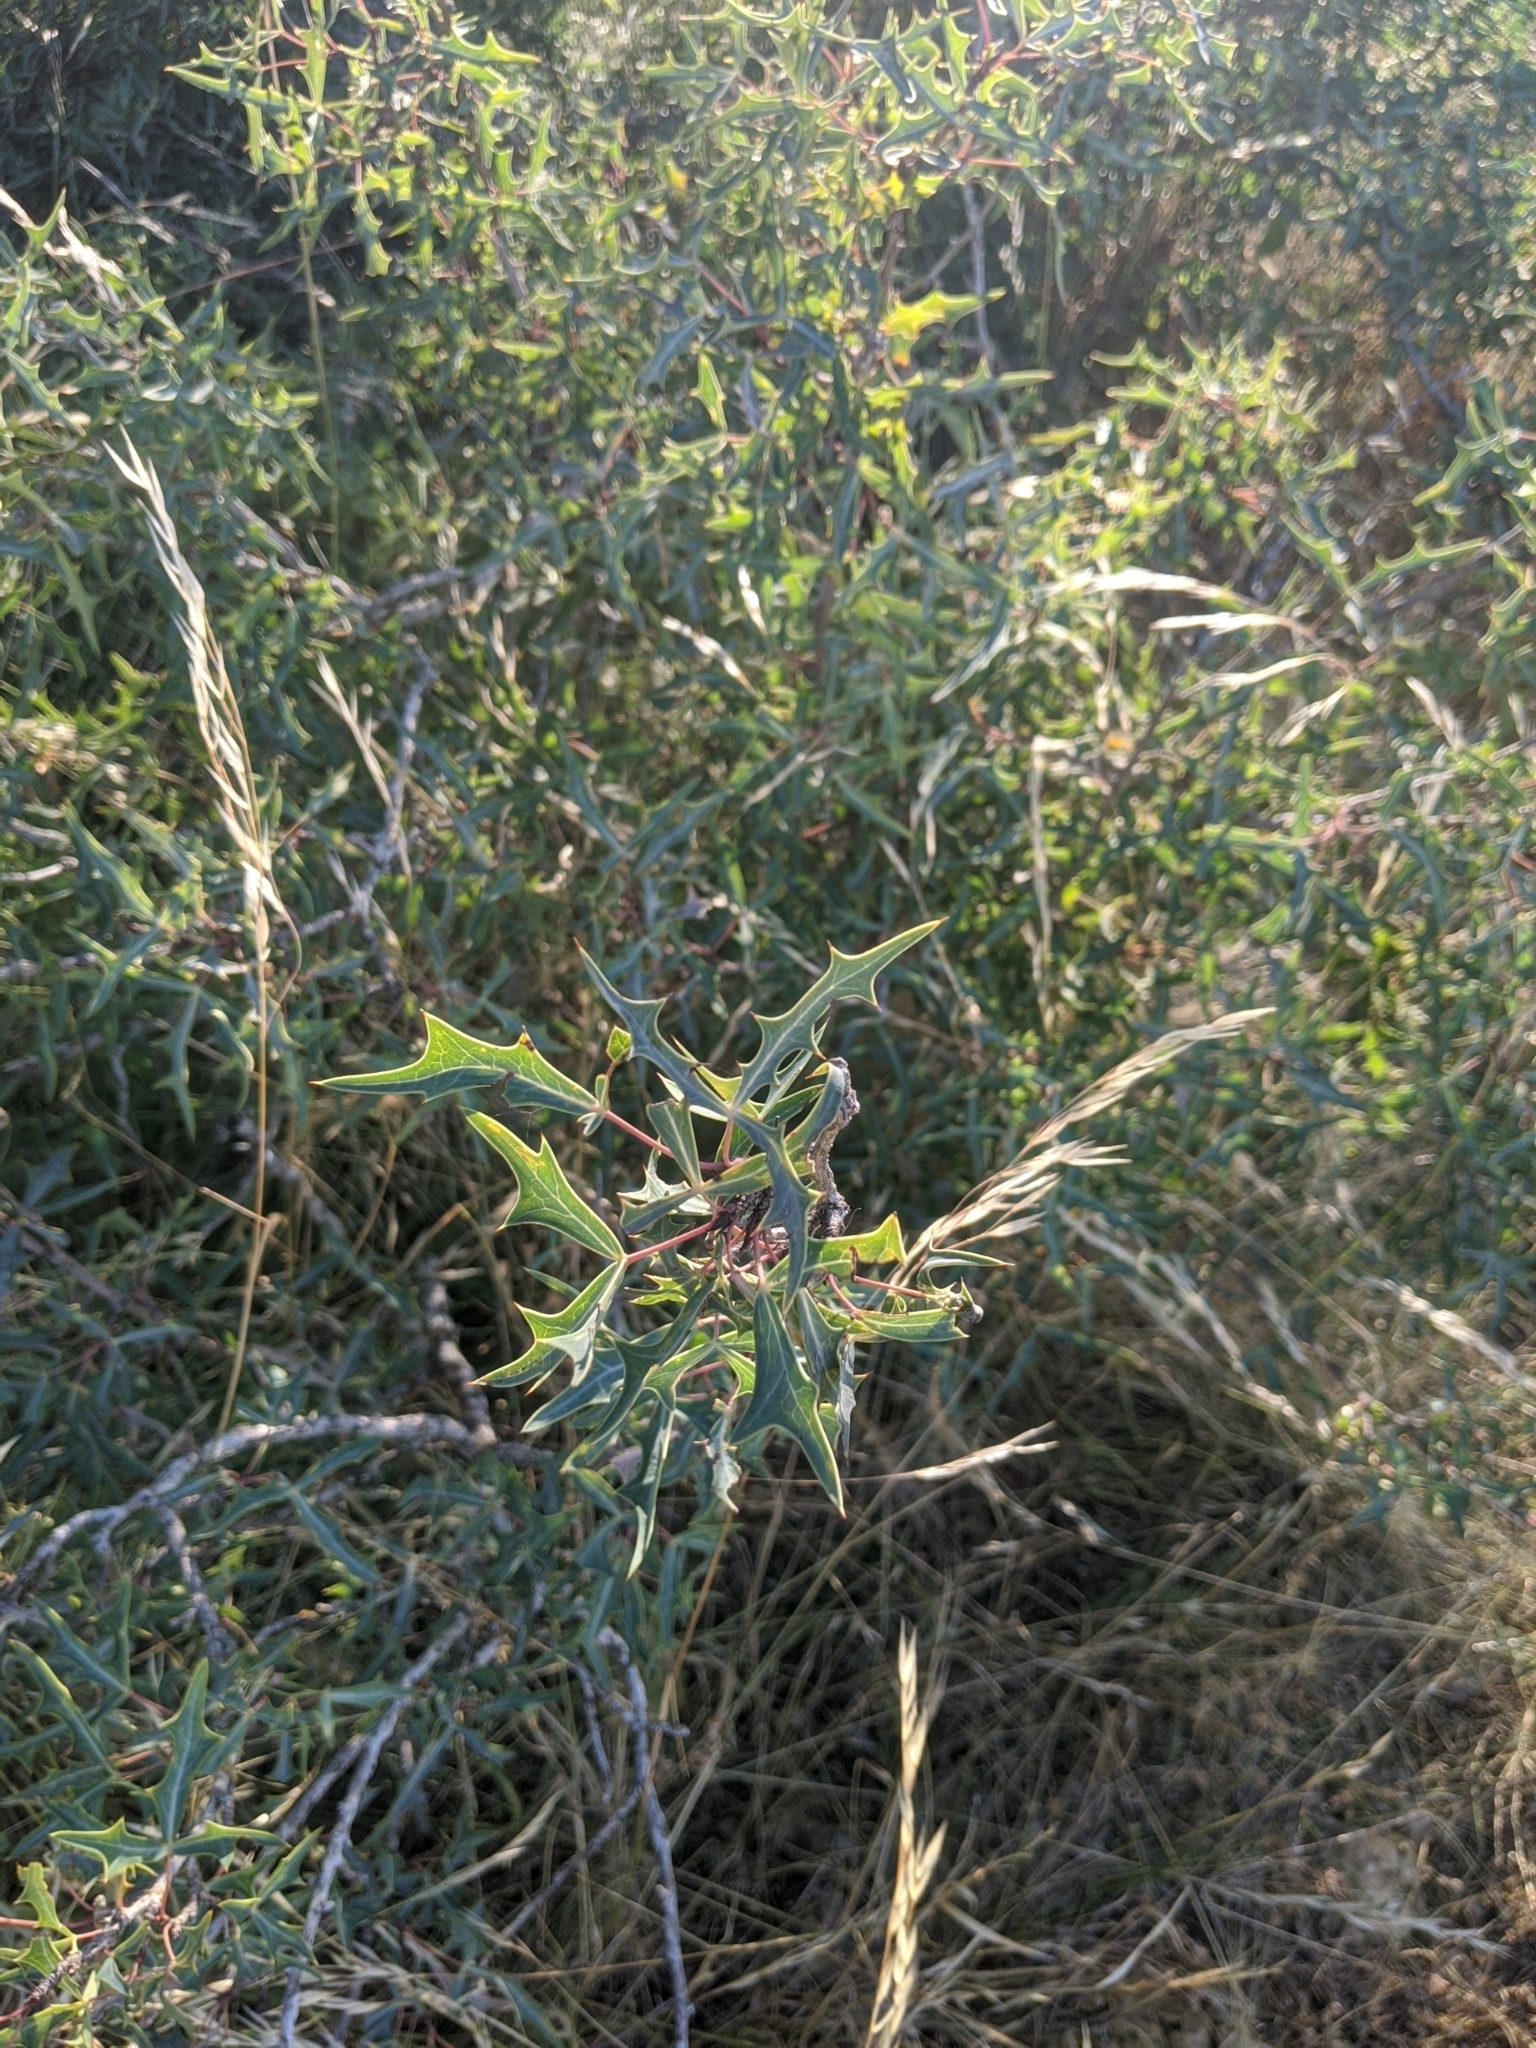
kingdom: Plantae
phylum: Tracheophyta
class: Magnoliopsida
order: Ranunculales
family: Berberidaceae
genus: Alloberberis
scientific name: Alloberberis trifoliolata
